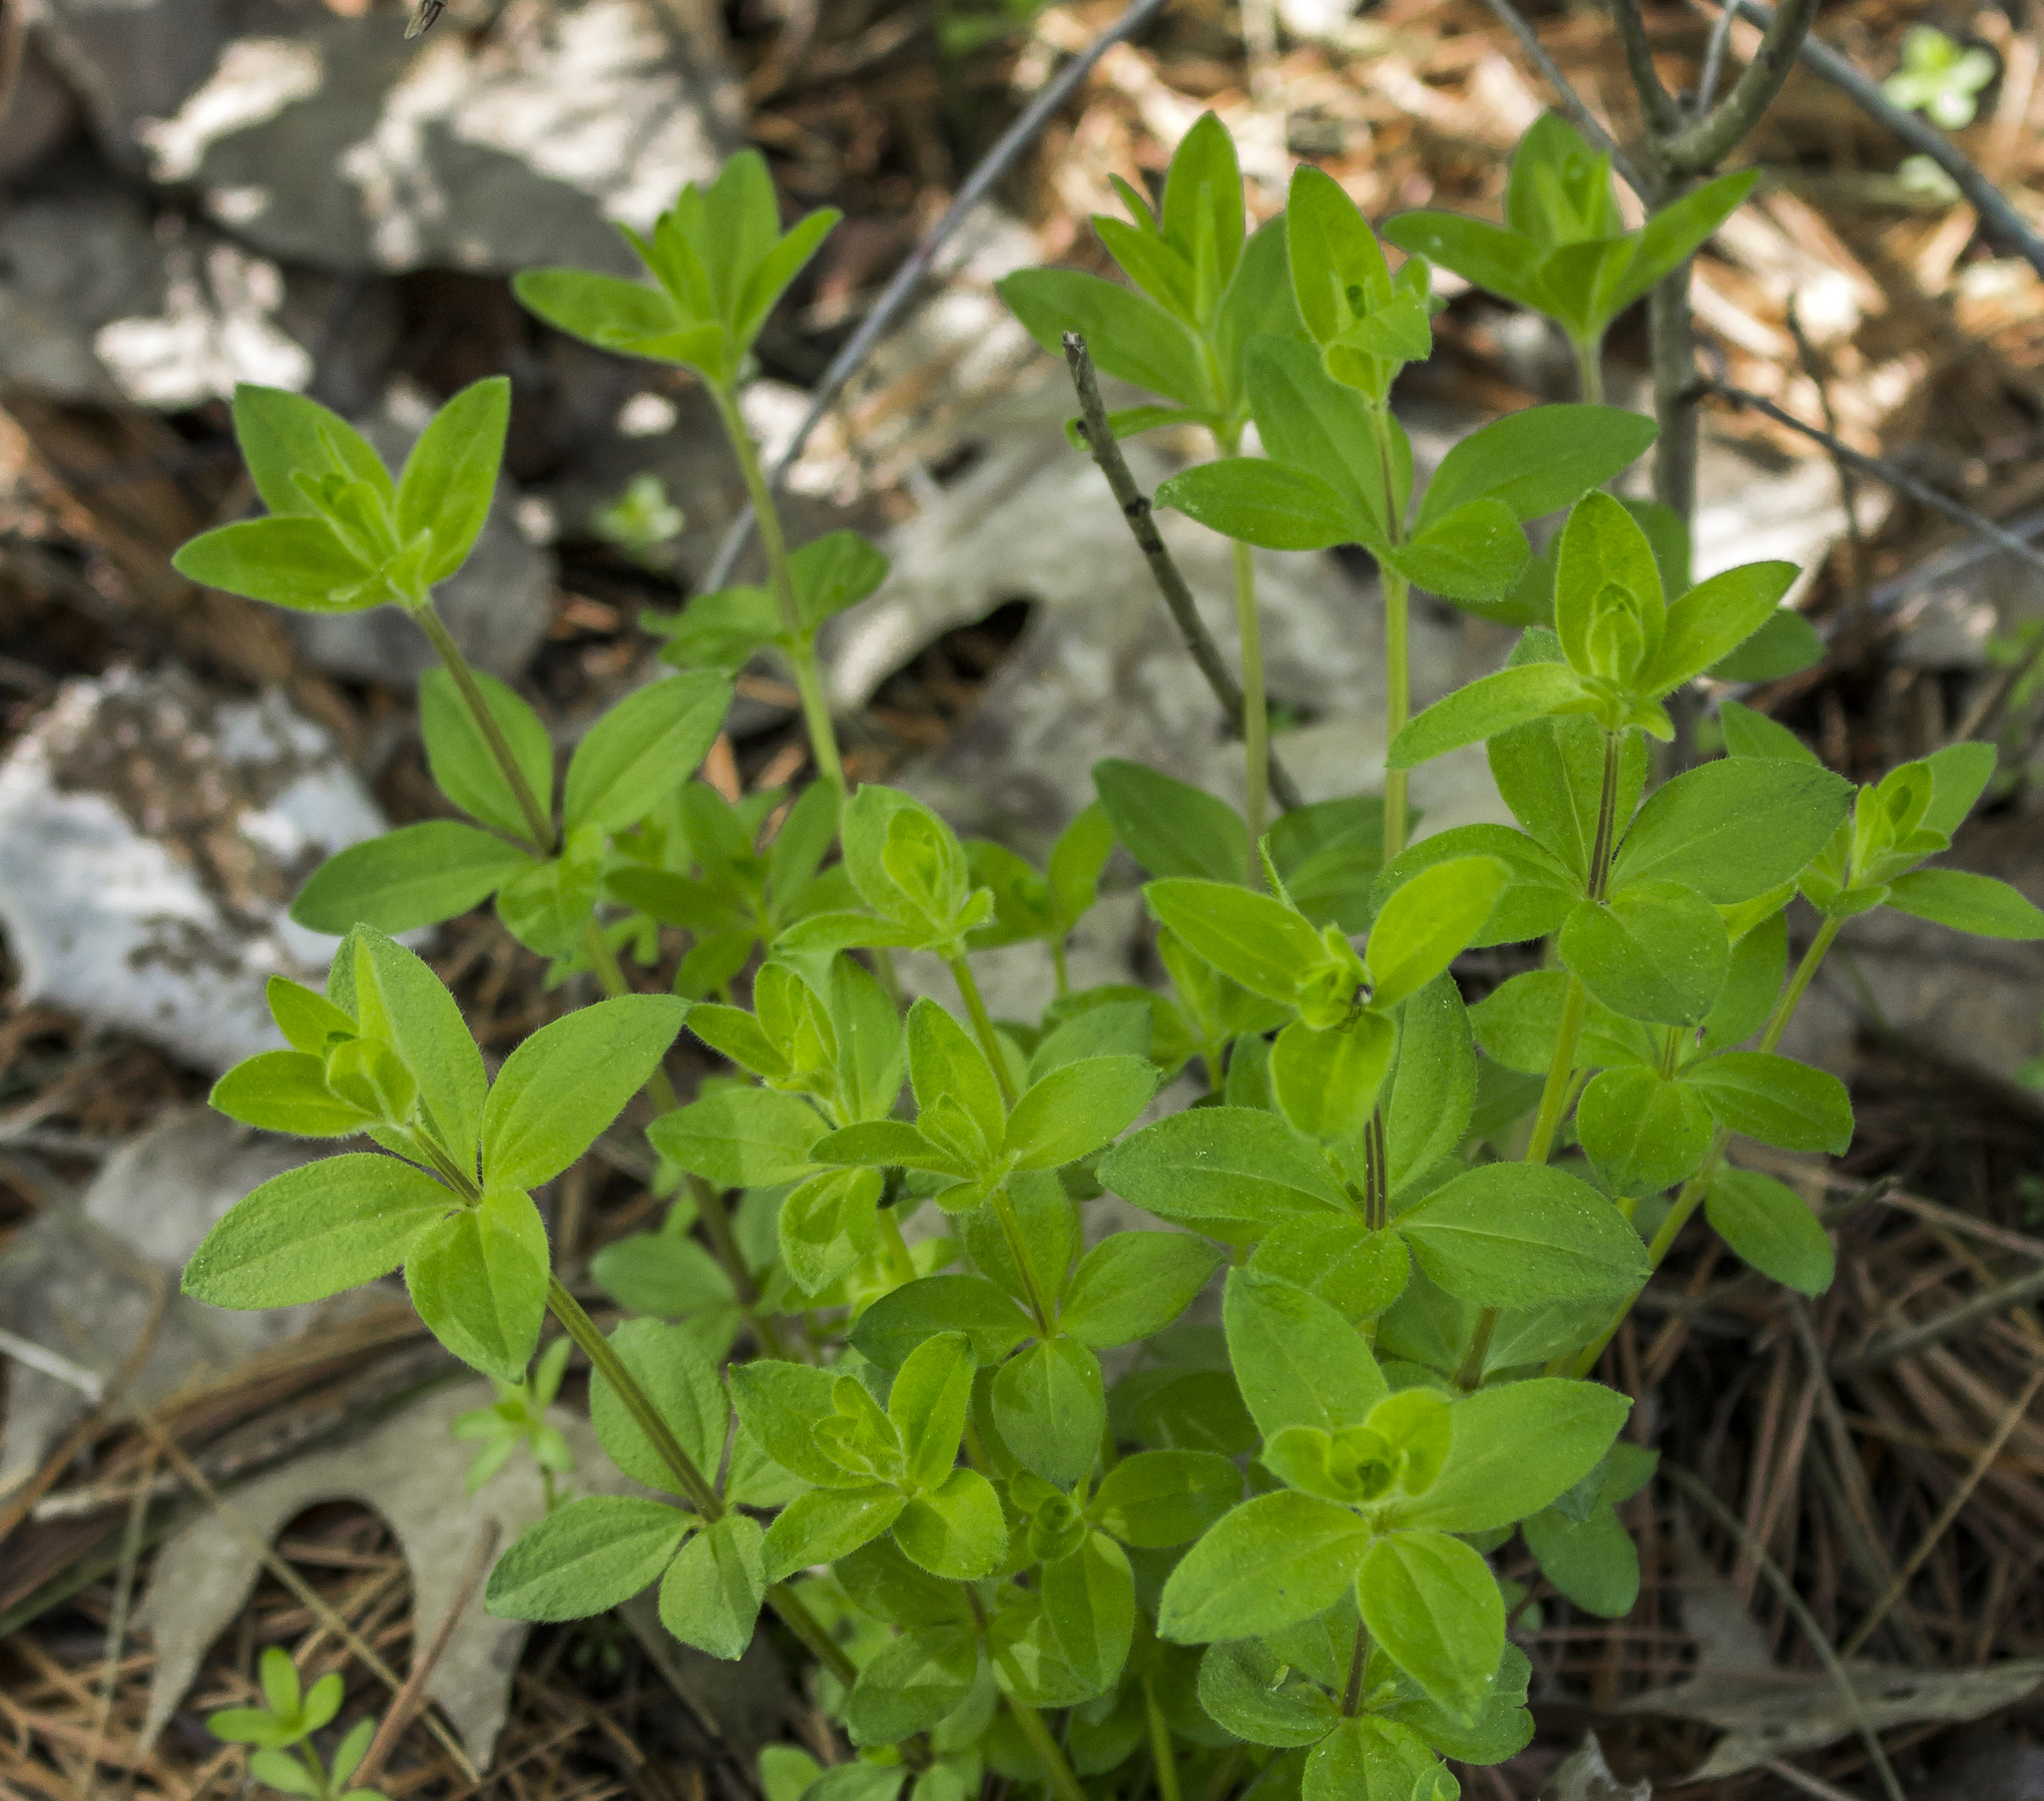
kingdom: Plantae
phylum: Tracheophyta
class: Magnoliopsida
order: Gentianales
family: Rubiaceae
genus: Galium
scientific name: Galium circaezans
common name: Forest bedstraw
